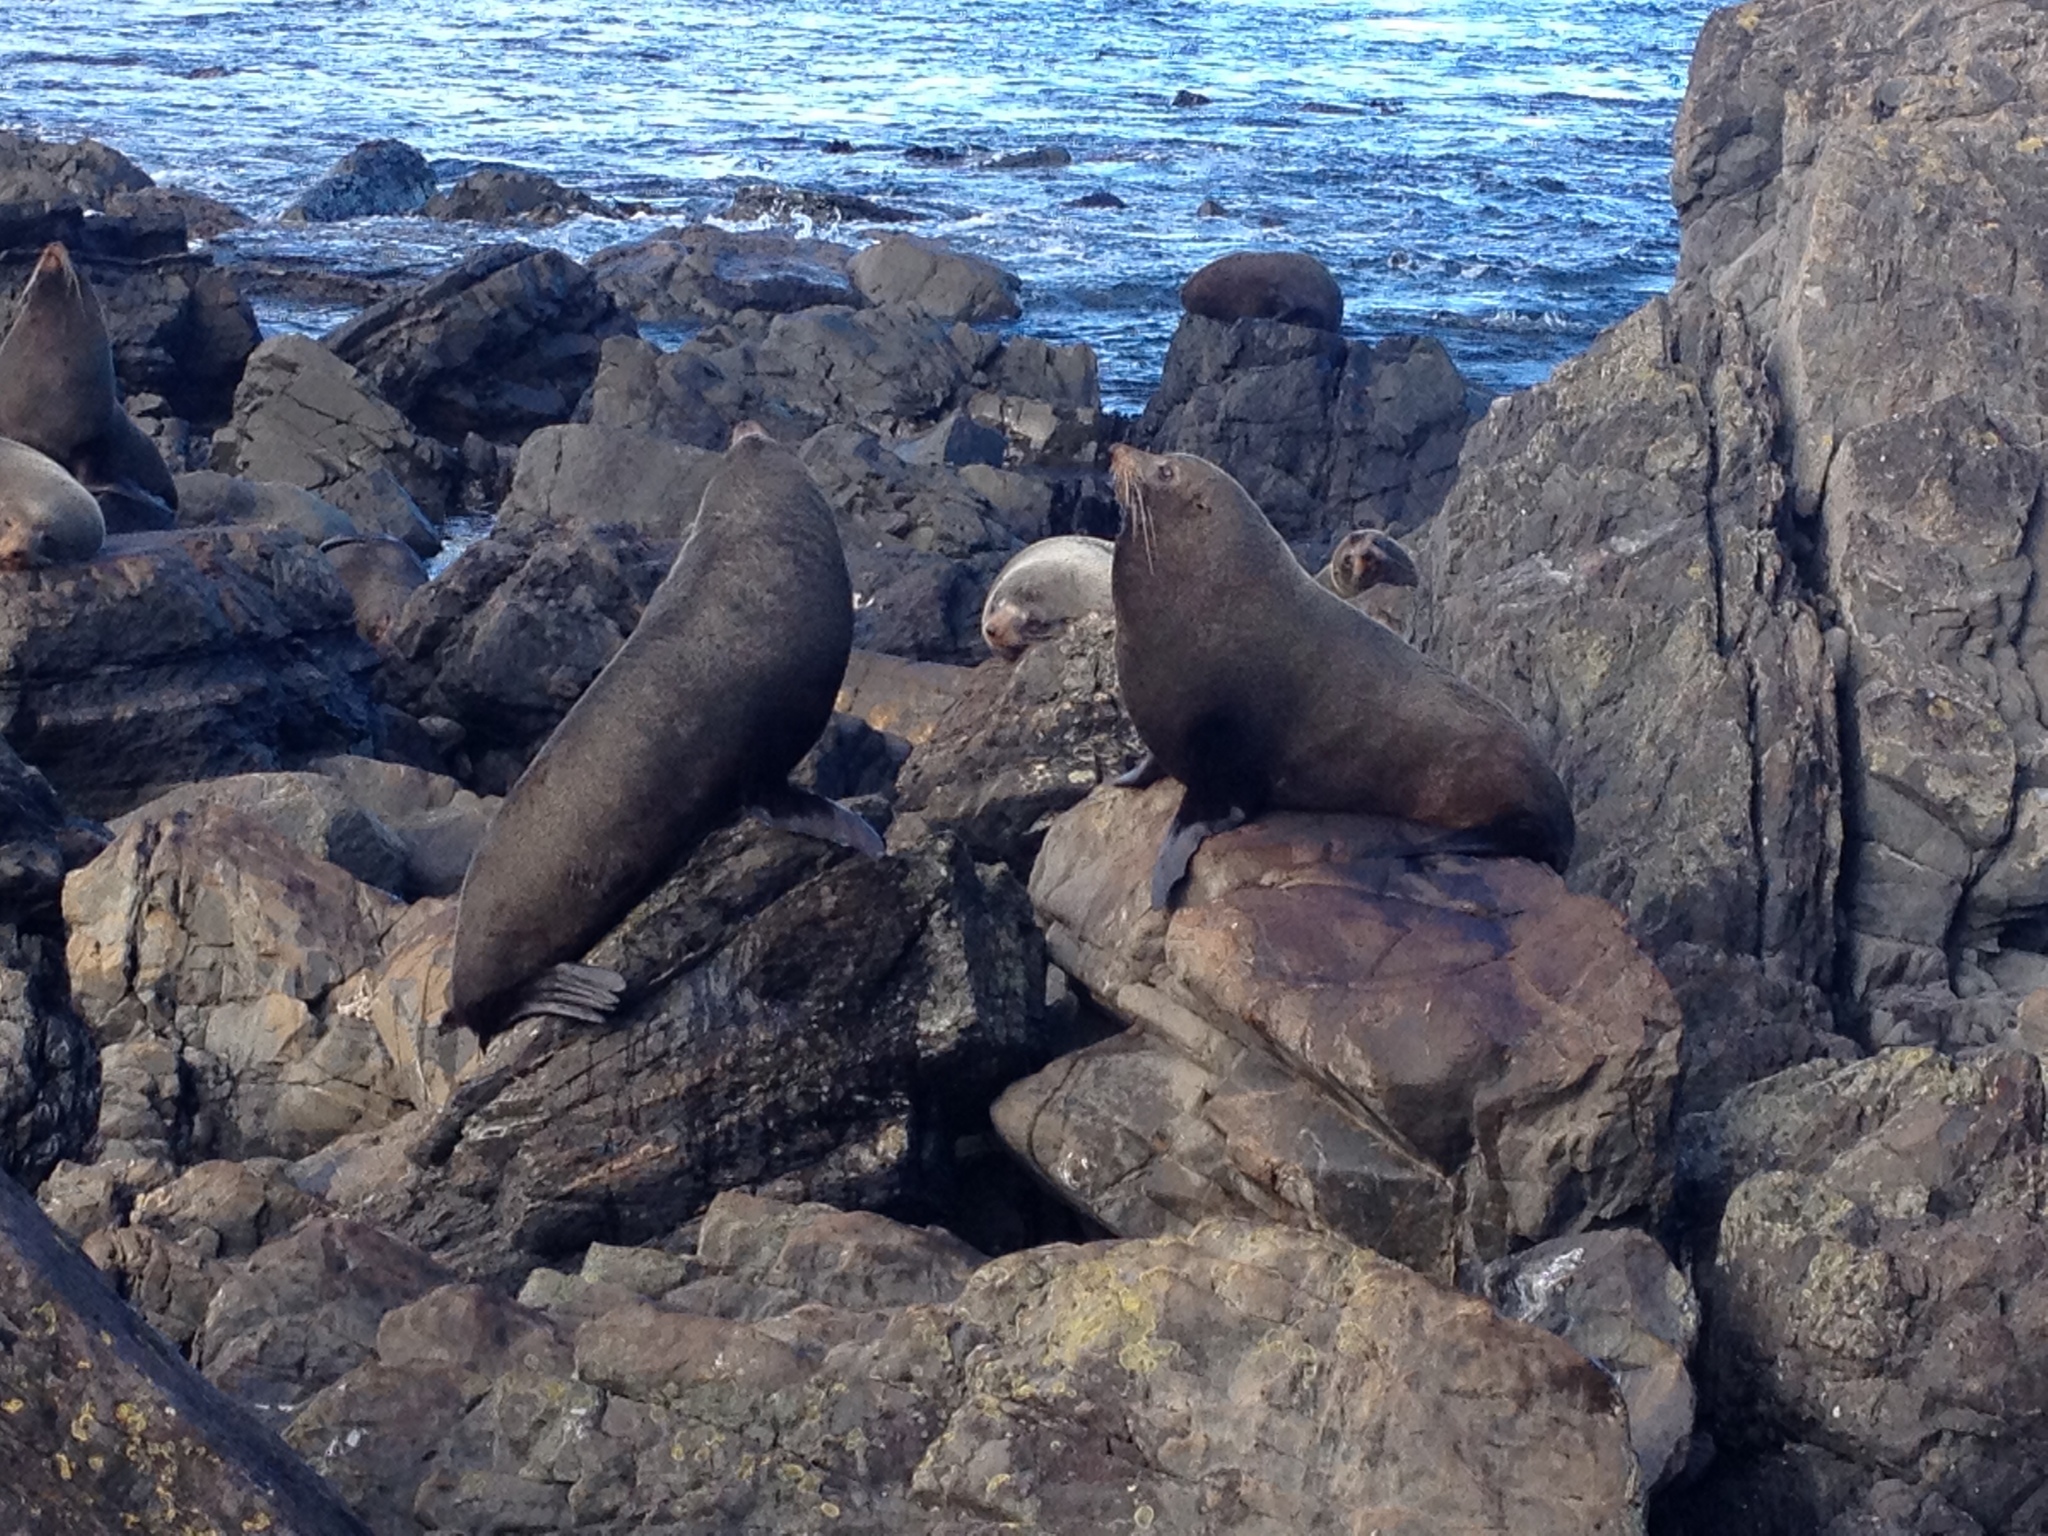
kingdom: Animalia
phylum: Chordata
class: Mammalia
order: Carnivora
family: Otariidae
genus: Arctocephalus
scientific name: Arctocephalus forsteri
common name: New zealand fur seal
